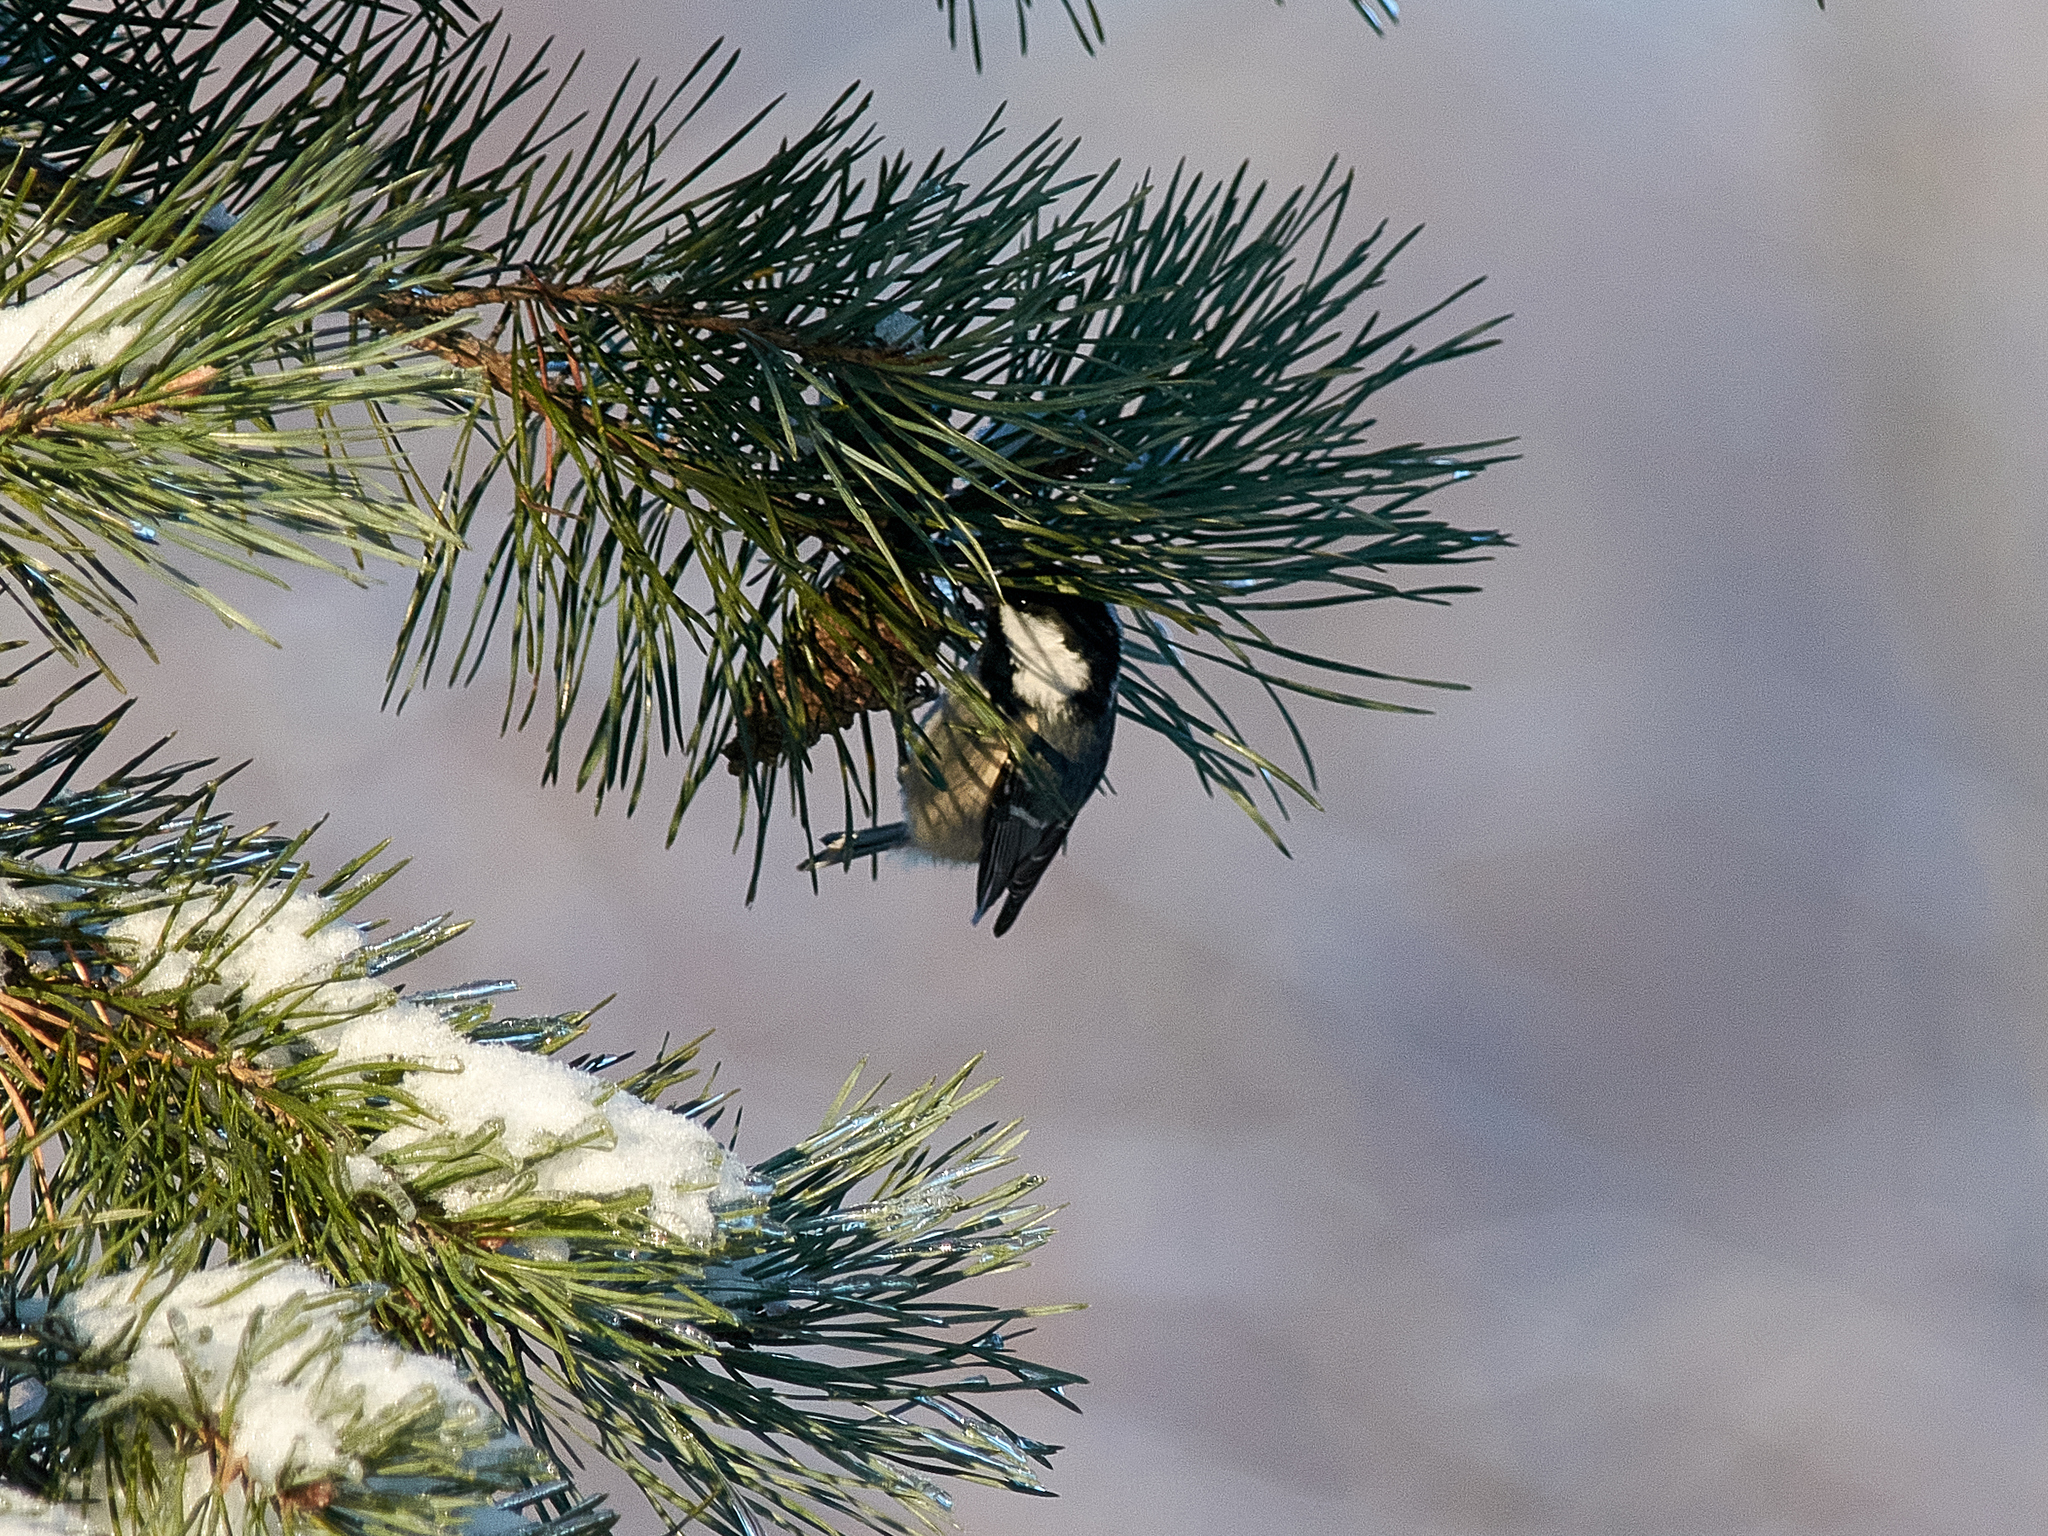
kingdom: Animalia
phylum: Chordata
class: Aves
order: Passeriformes
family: Paridae
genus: Periparus
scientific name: Periparus ater
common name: Coal tit
